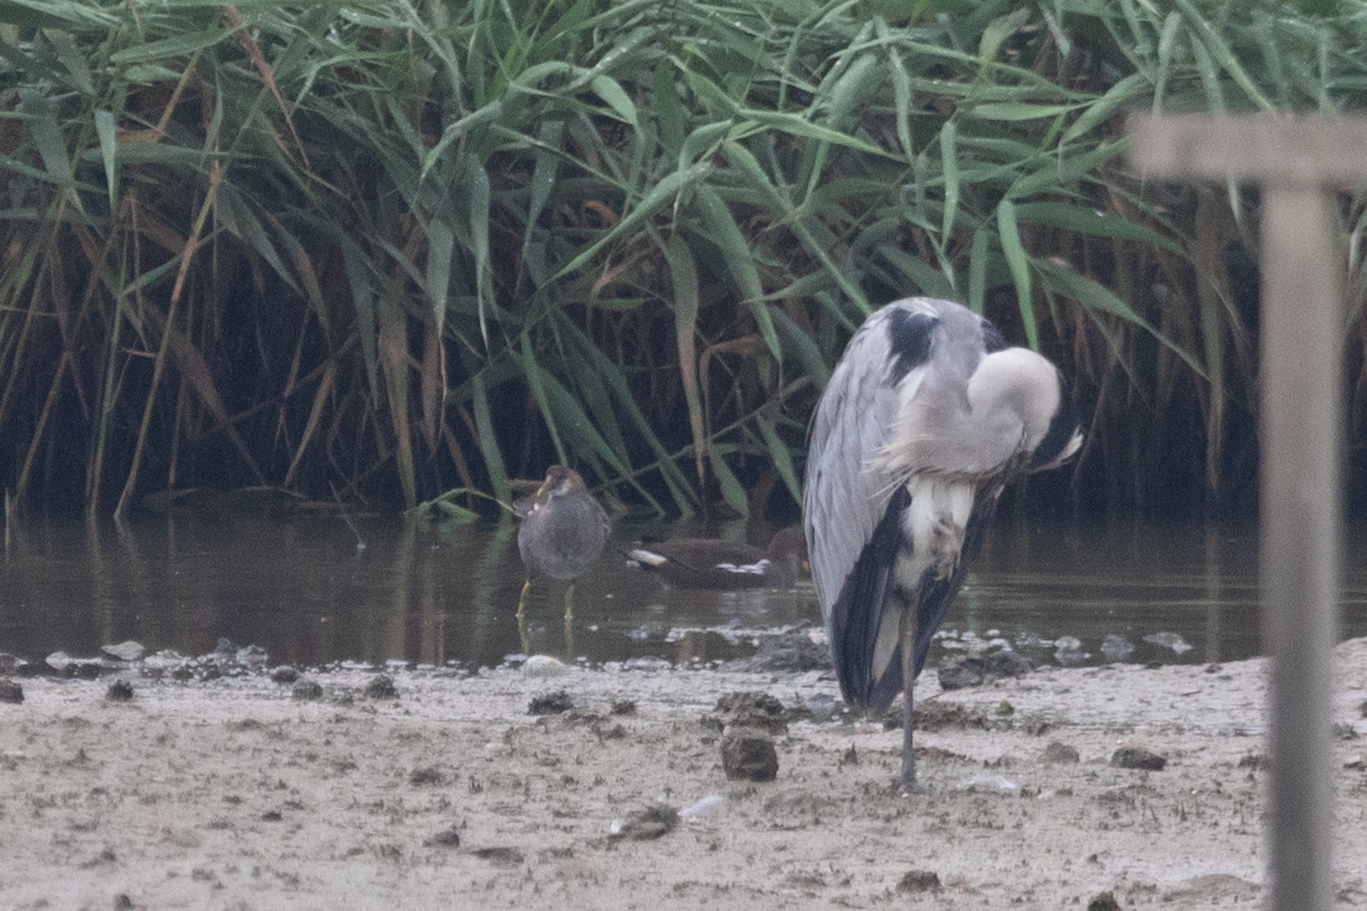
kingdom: Animalia
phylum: Chordata
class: Aves
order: Gruiformes
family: Rallidae
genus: Gallinula
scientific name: Gallinula chloropus
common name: Common moorhen
